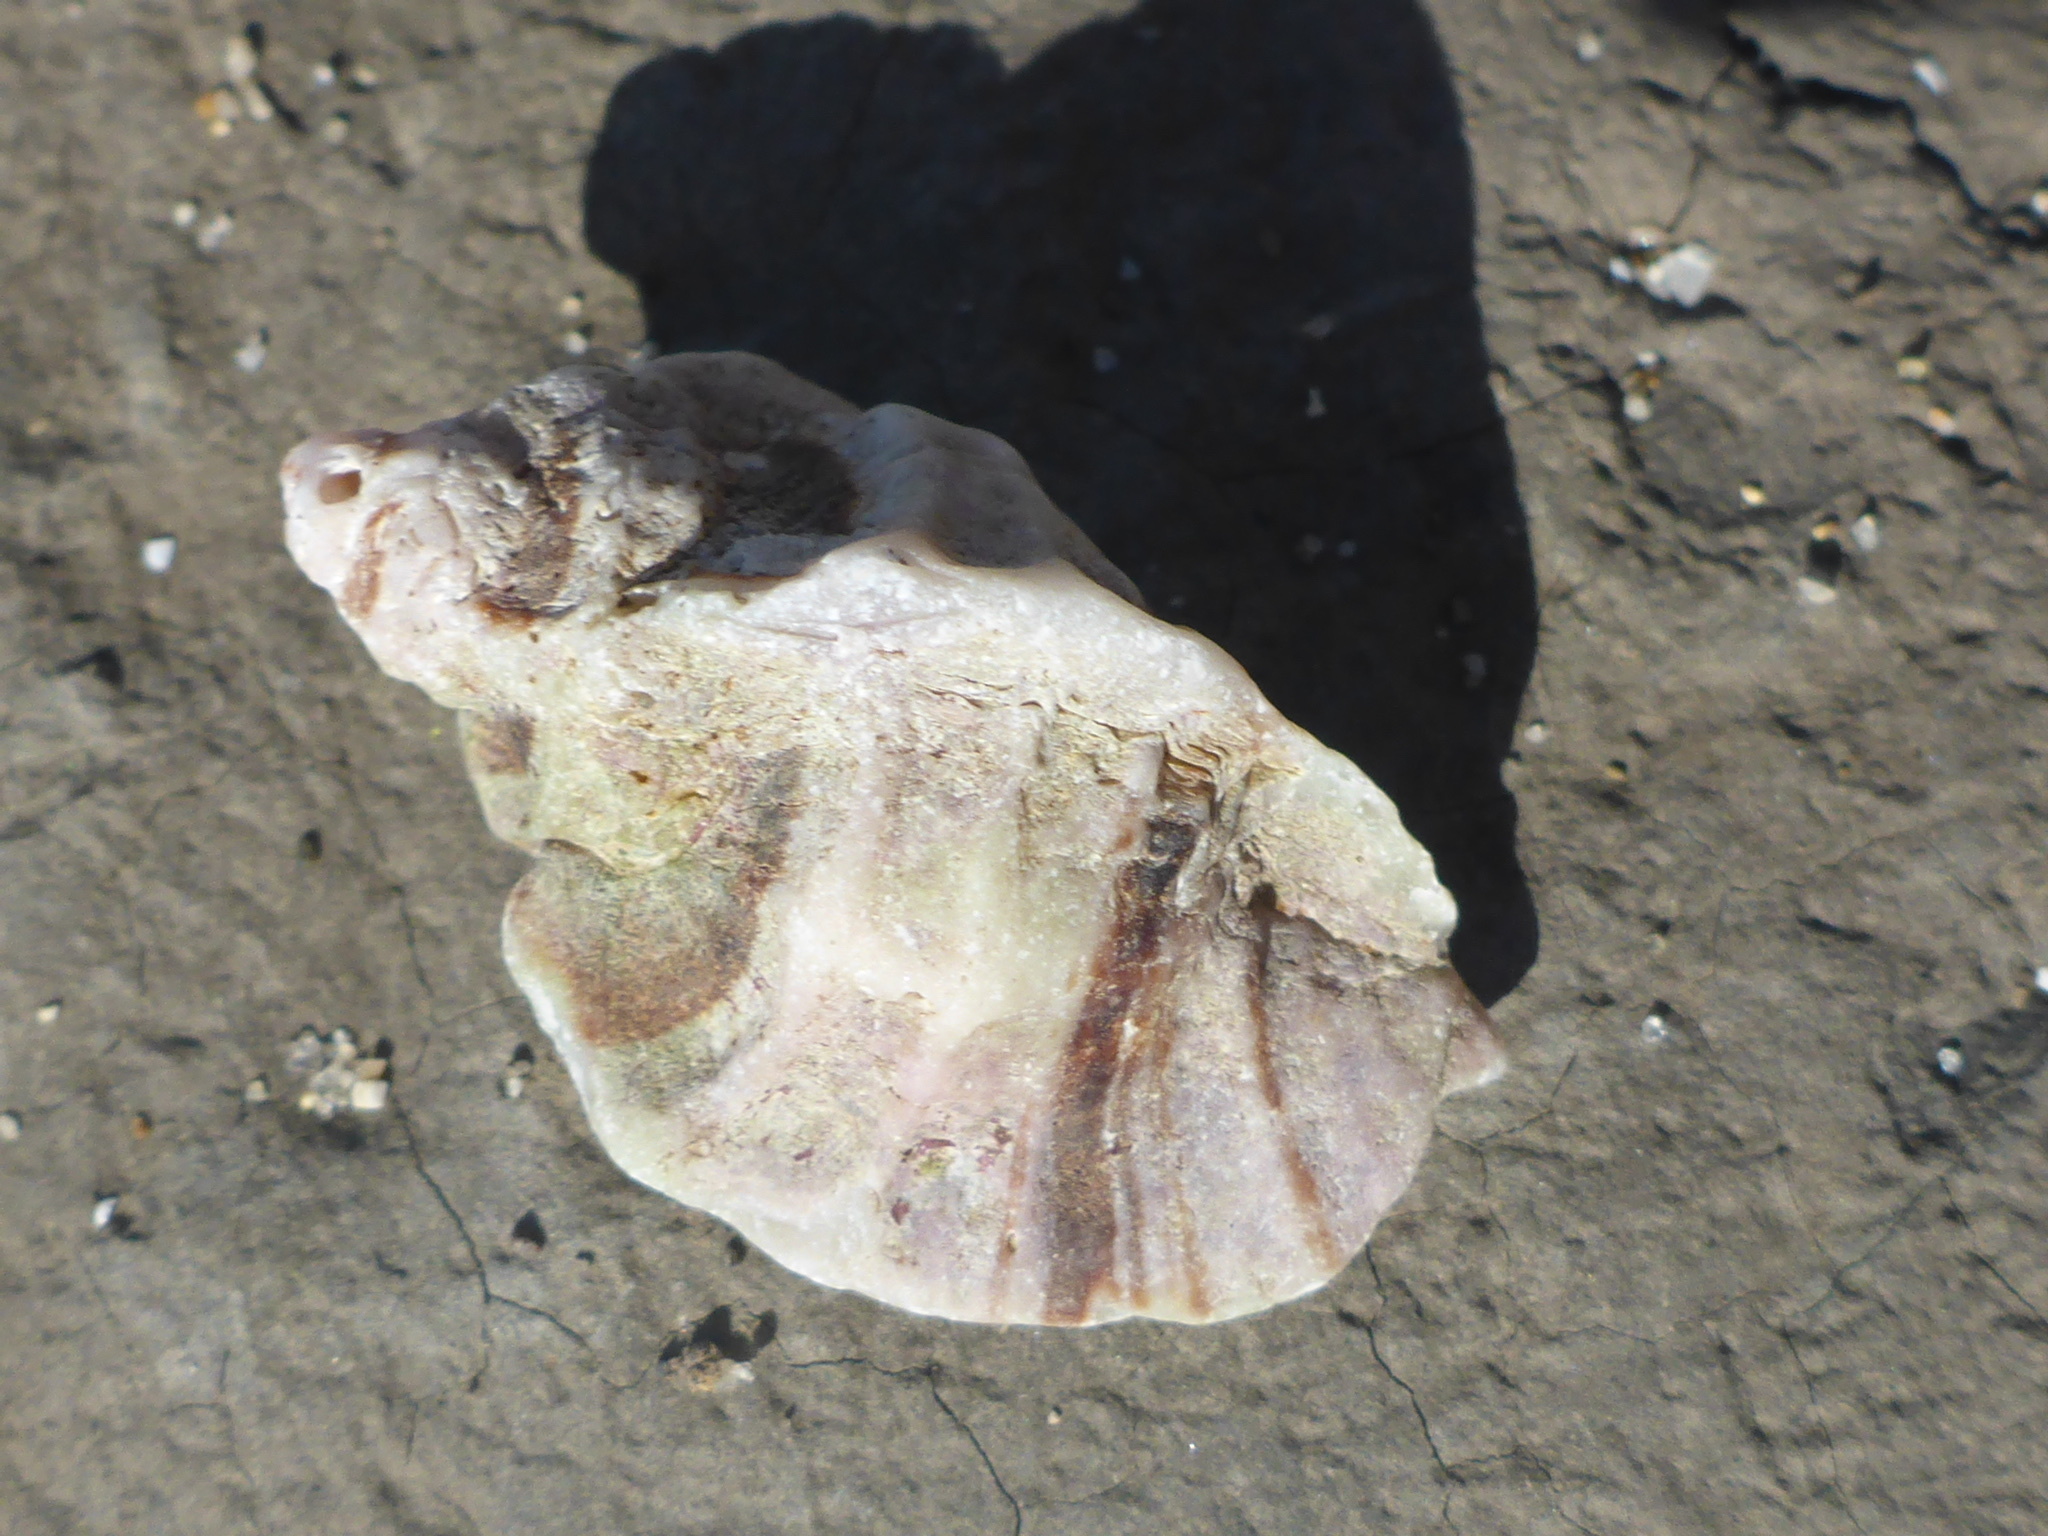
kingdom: Animalia
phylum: Mollusca
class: Gastropoda
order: Neogastropoda
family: Muricidae
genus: Ceratostoma
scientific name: Ceratostoma foliatum
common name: Foliate thorn purpura
